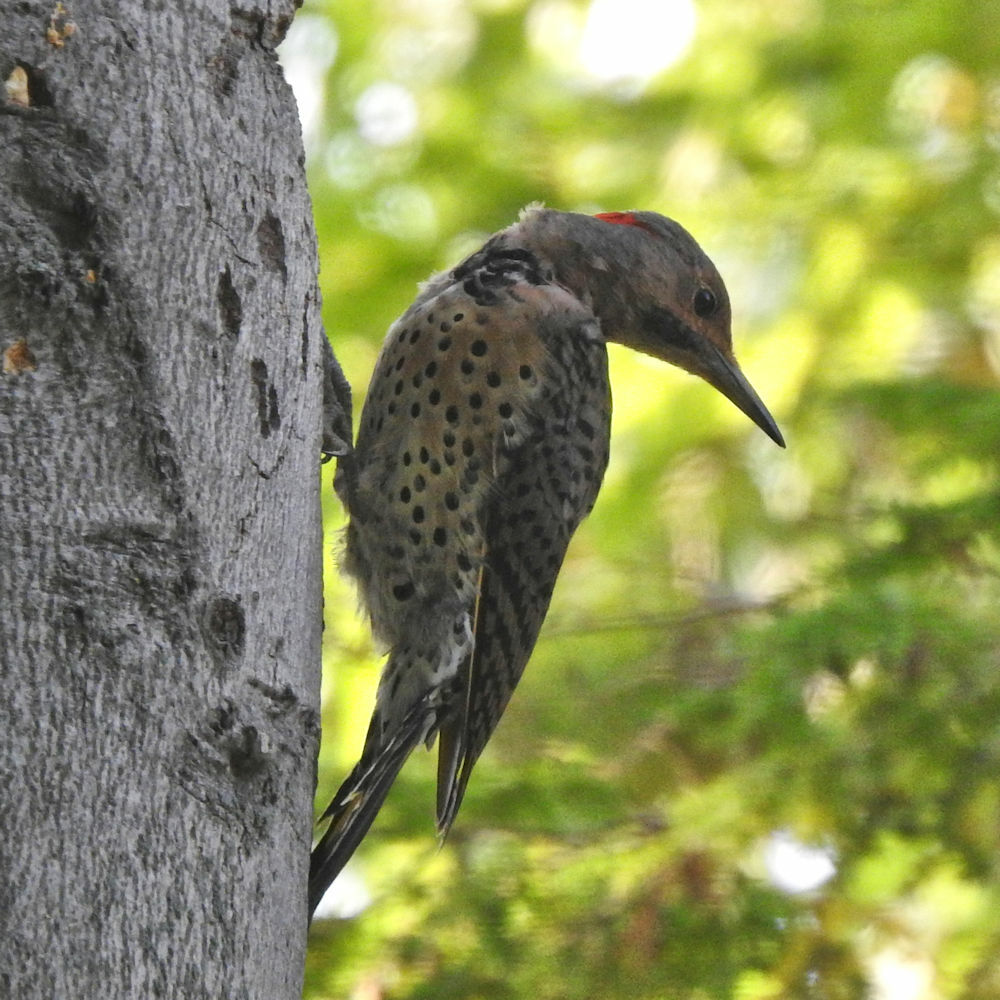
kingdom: Animalia
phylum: Chordata
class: Aves
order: Piciformes
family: Picidae
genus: Colaptes
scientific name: Colaptes auratus
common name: Northern flicker
